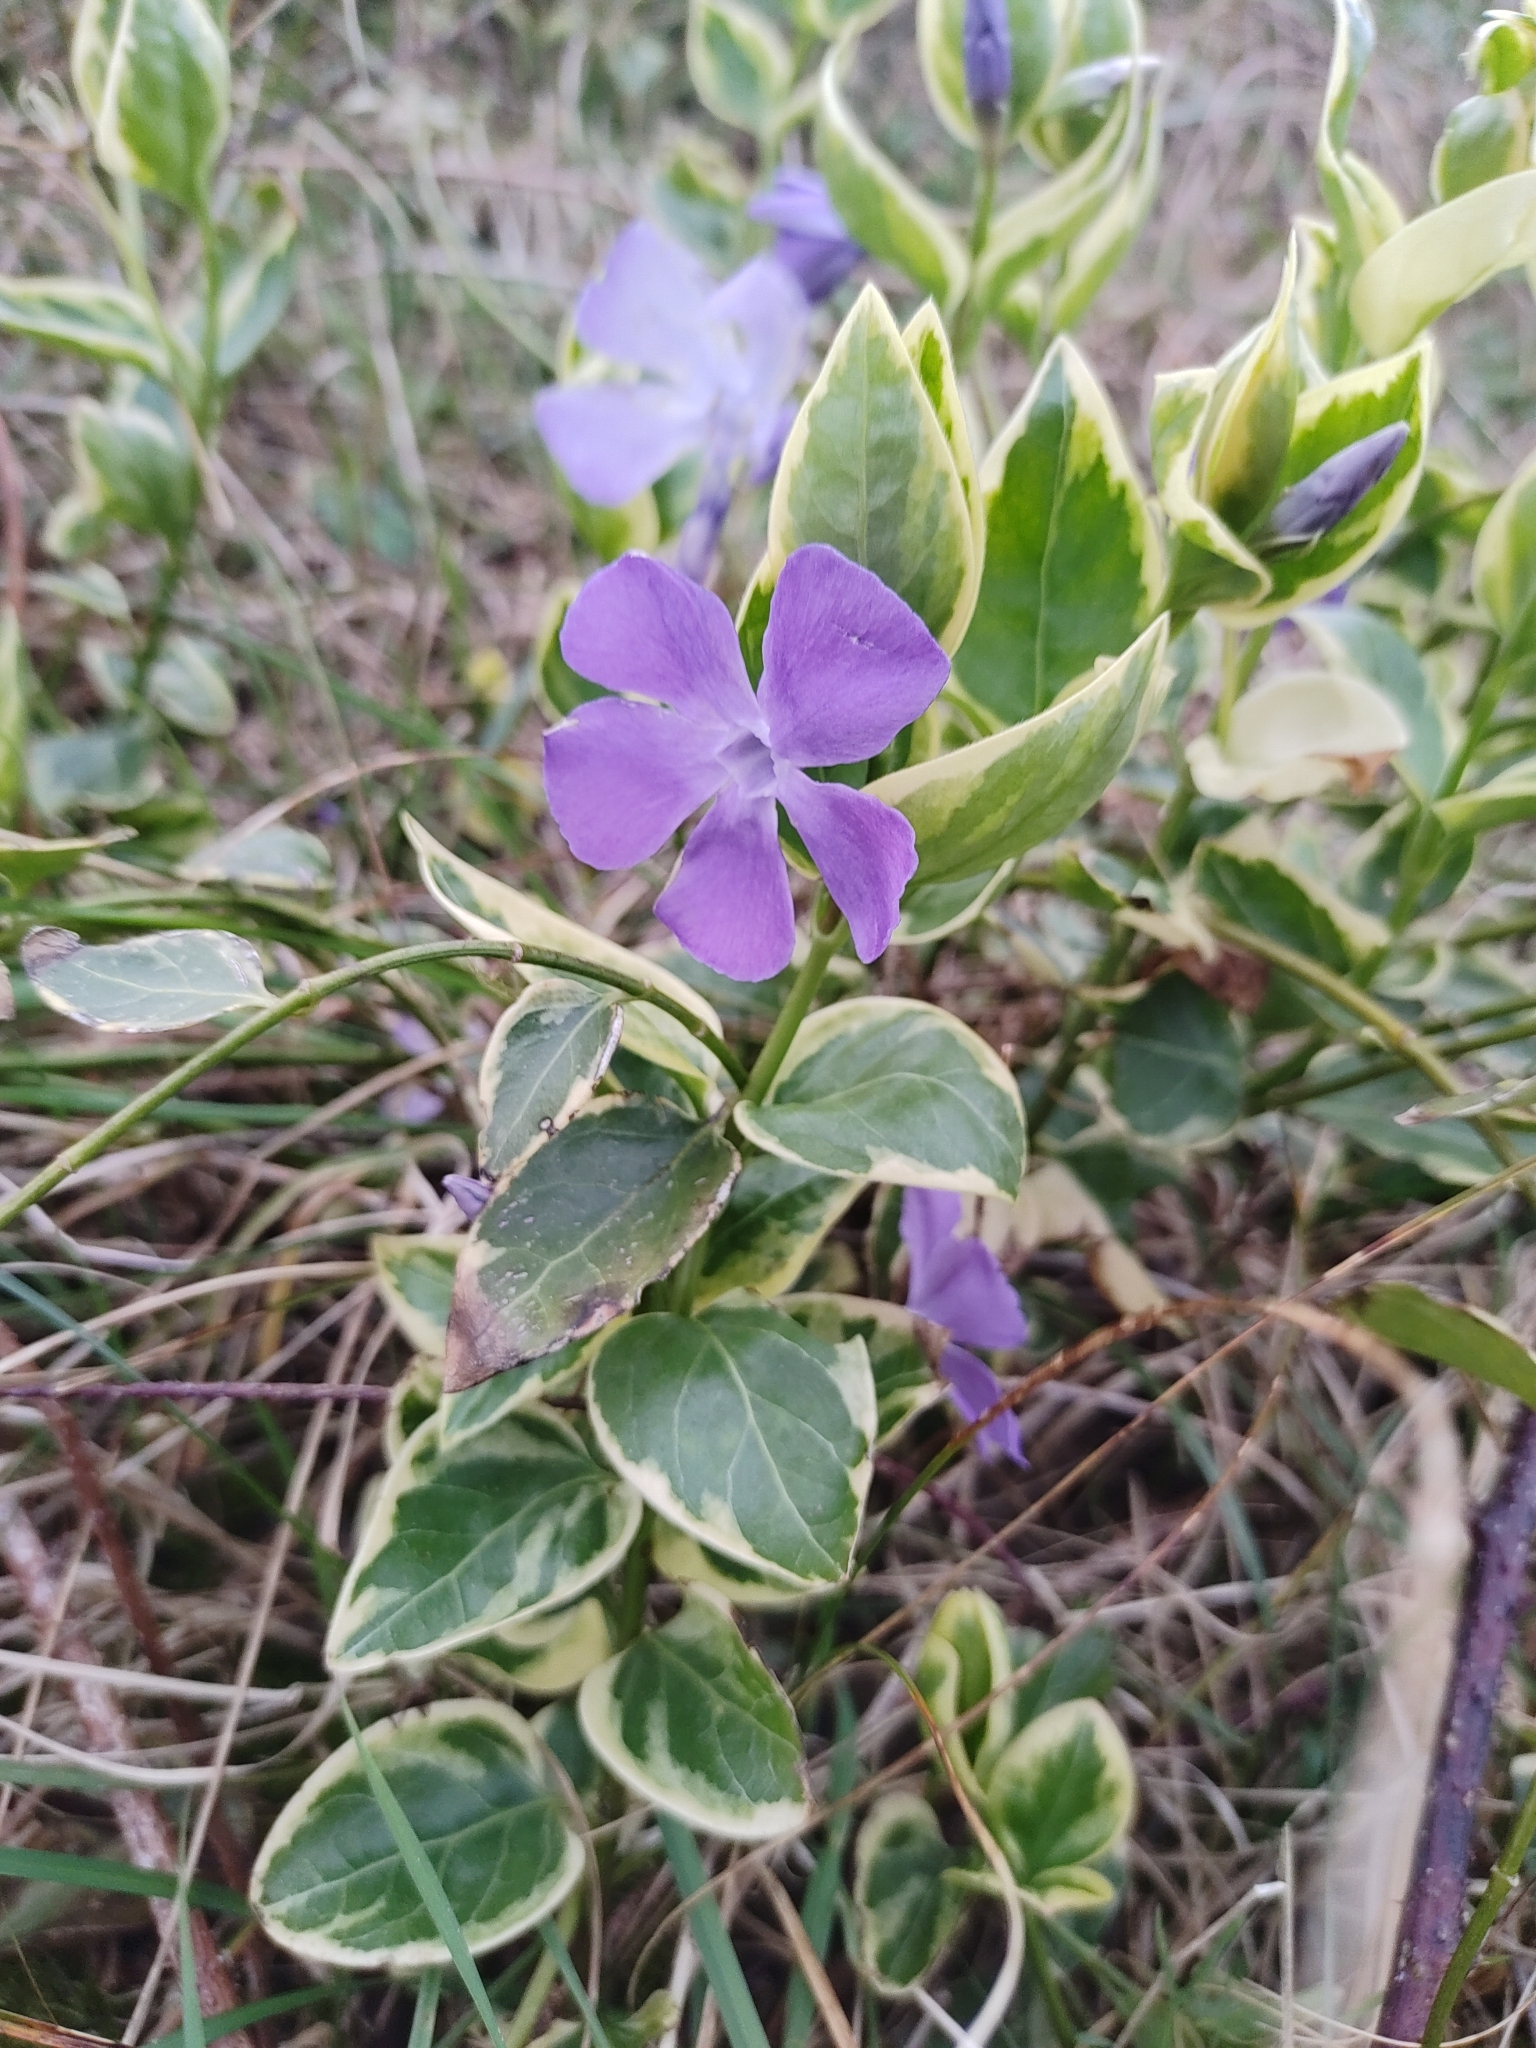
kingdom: Plantae
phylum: Tracheophyta
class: Magnoliopsida
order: Gentianales
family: Apocynaceae
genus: Vinca
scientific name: Vinca major
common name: Greater periwinkle
